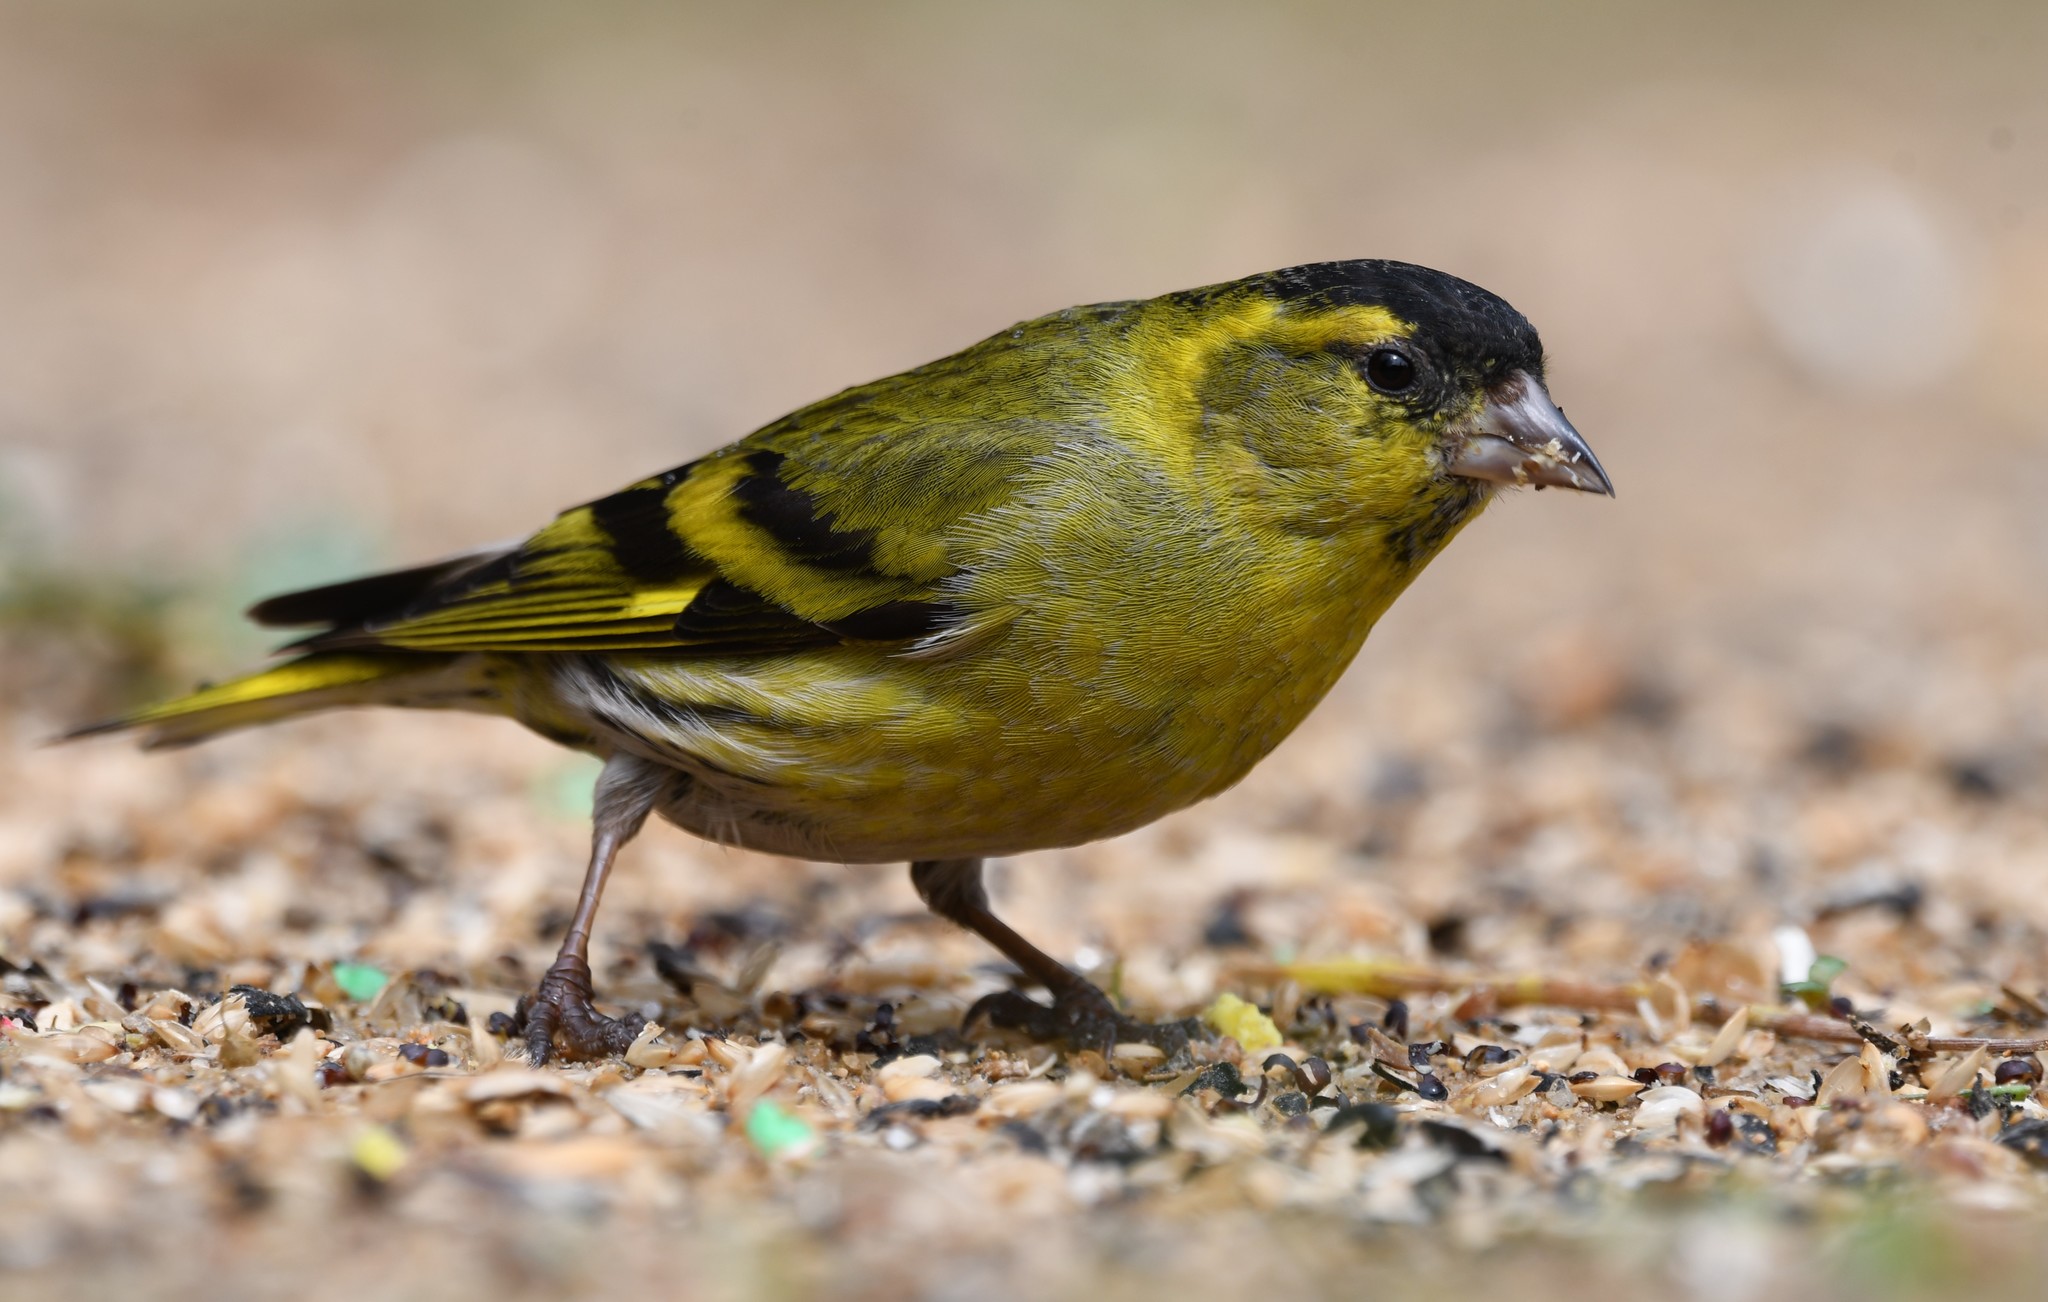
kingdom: Animalia
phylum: Chordata
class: Aves
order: Passeriformes
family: Fringillidae
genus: Spinus
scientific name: Spinus spinus
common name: Eurasian siskin
